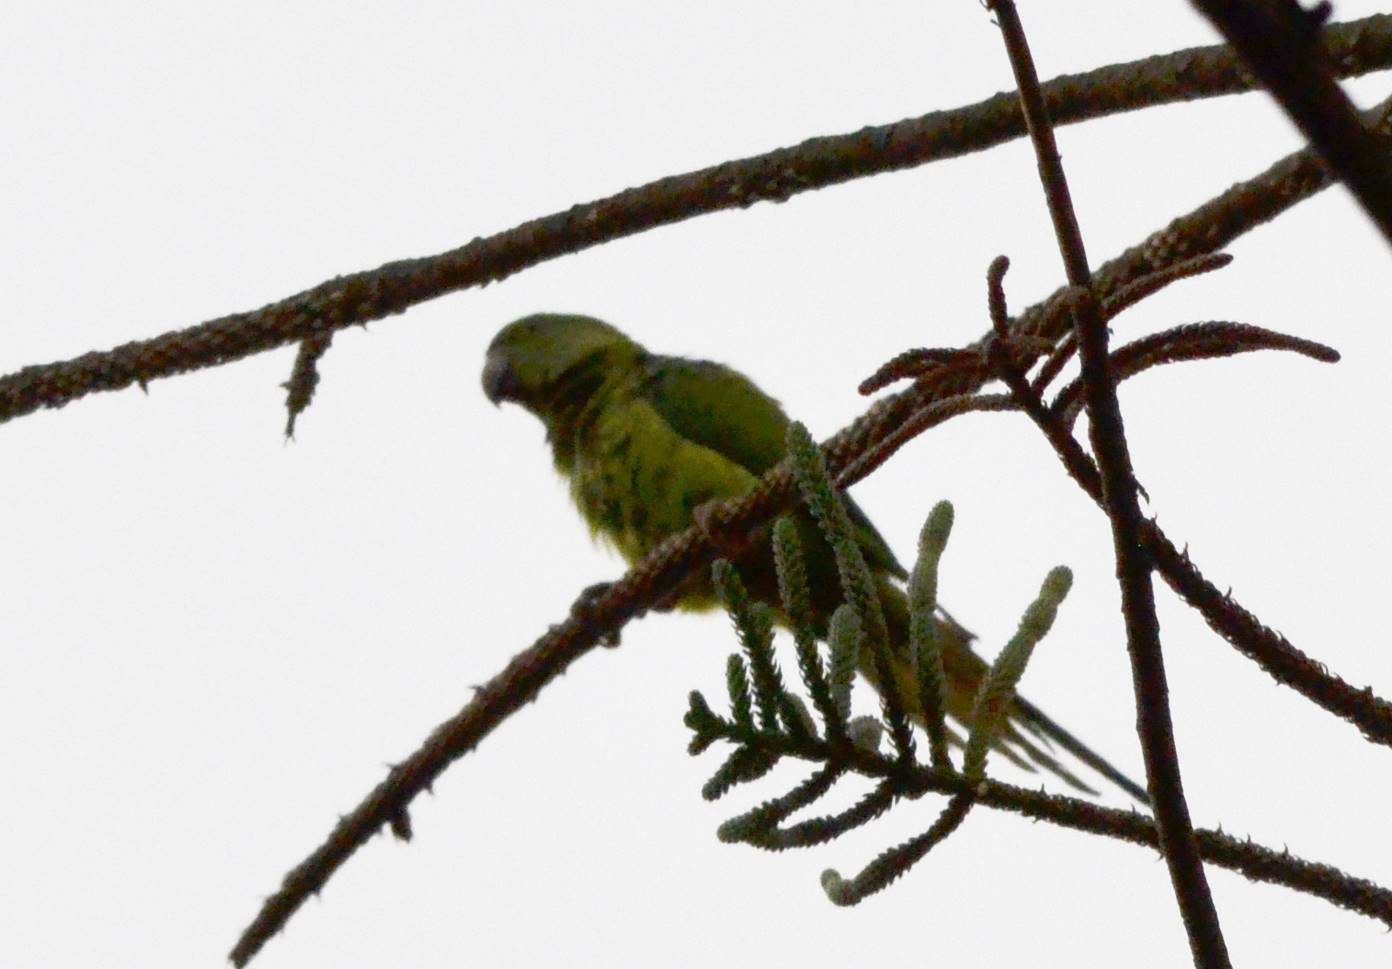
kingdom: Animalia
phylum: Chordata
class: Aves
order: Psittaciformes
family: Psittacidae
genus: Psittacula
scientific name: Psittacula krameri
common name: Rose-ringed parakeet
